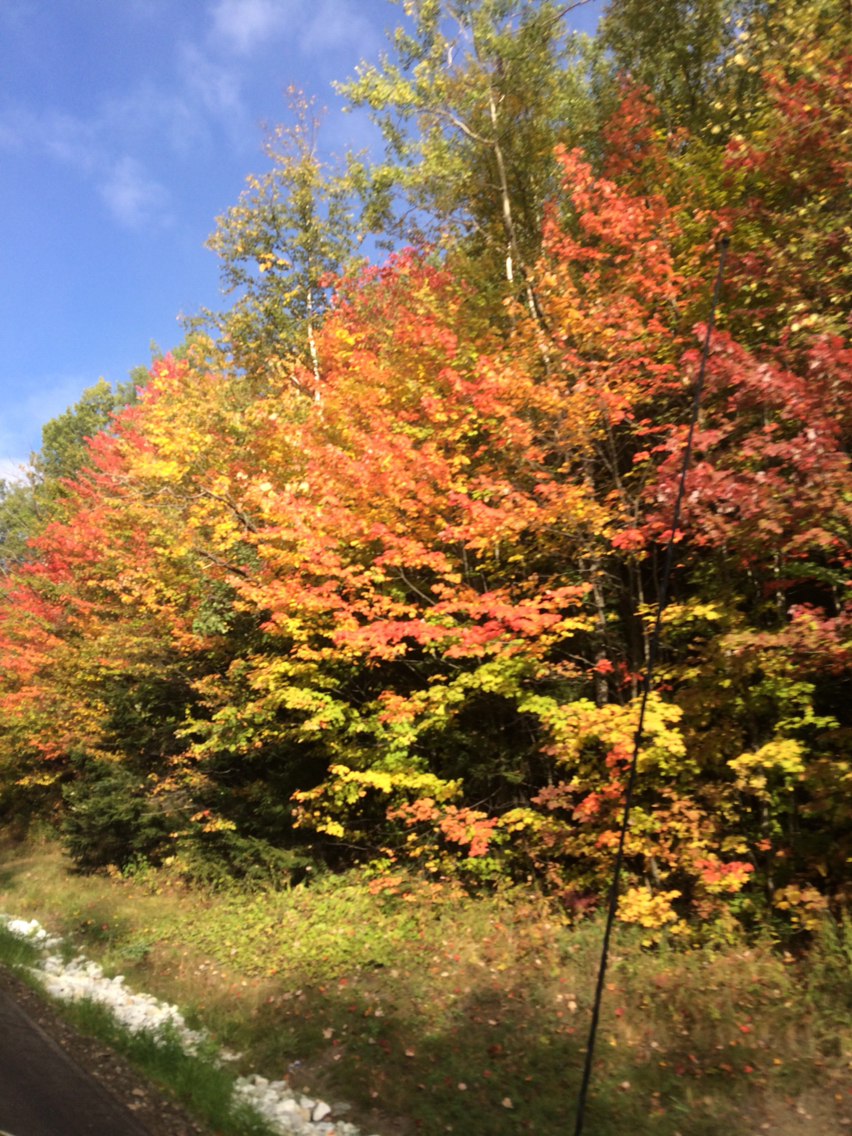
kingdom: Plantae
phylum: Tracheophyta
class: Magnoliopsida
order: Sapindales
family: Sapindaceae
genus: Acer
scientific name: Acer rubrum
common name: Red maple
